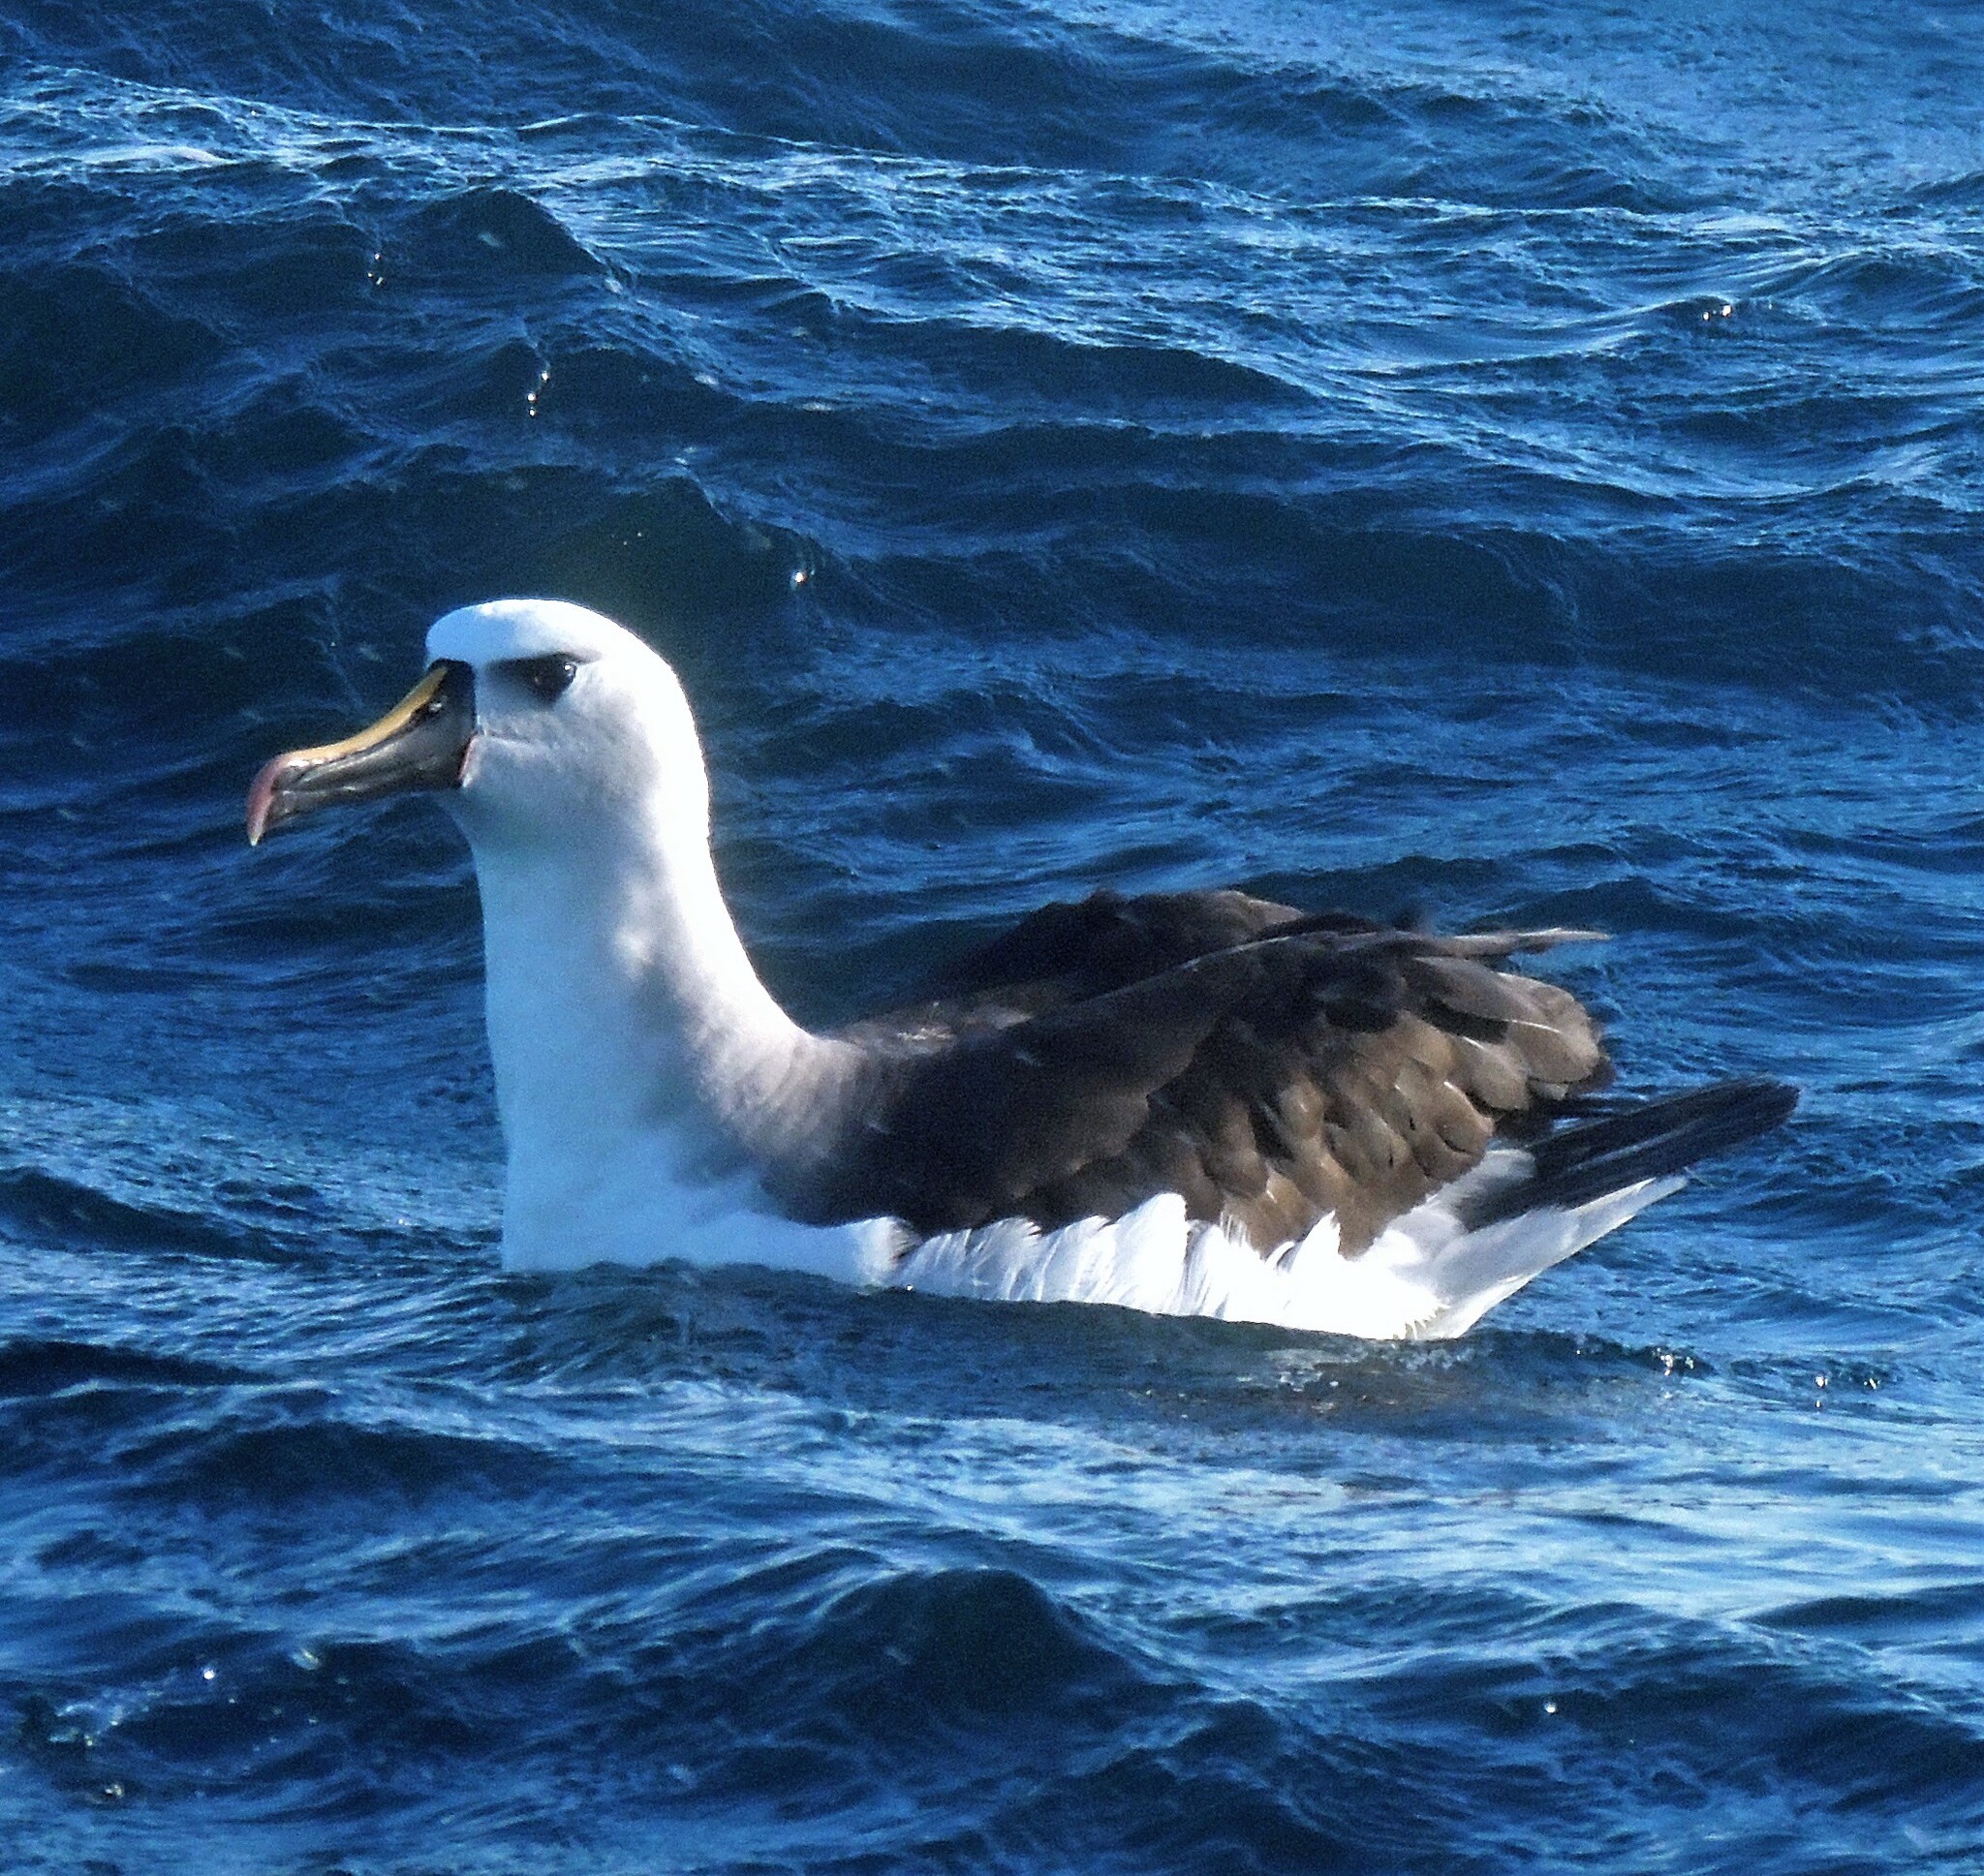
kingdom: Animalia
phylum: Chordata
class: Aves
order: Procellariiformes
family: Diomedeidae
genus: Thalassarche
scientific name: Thalassarche chlororhynchos
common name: Atlantic yellow-nosed albatross
